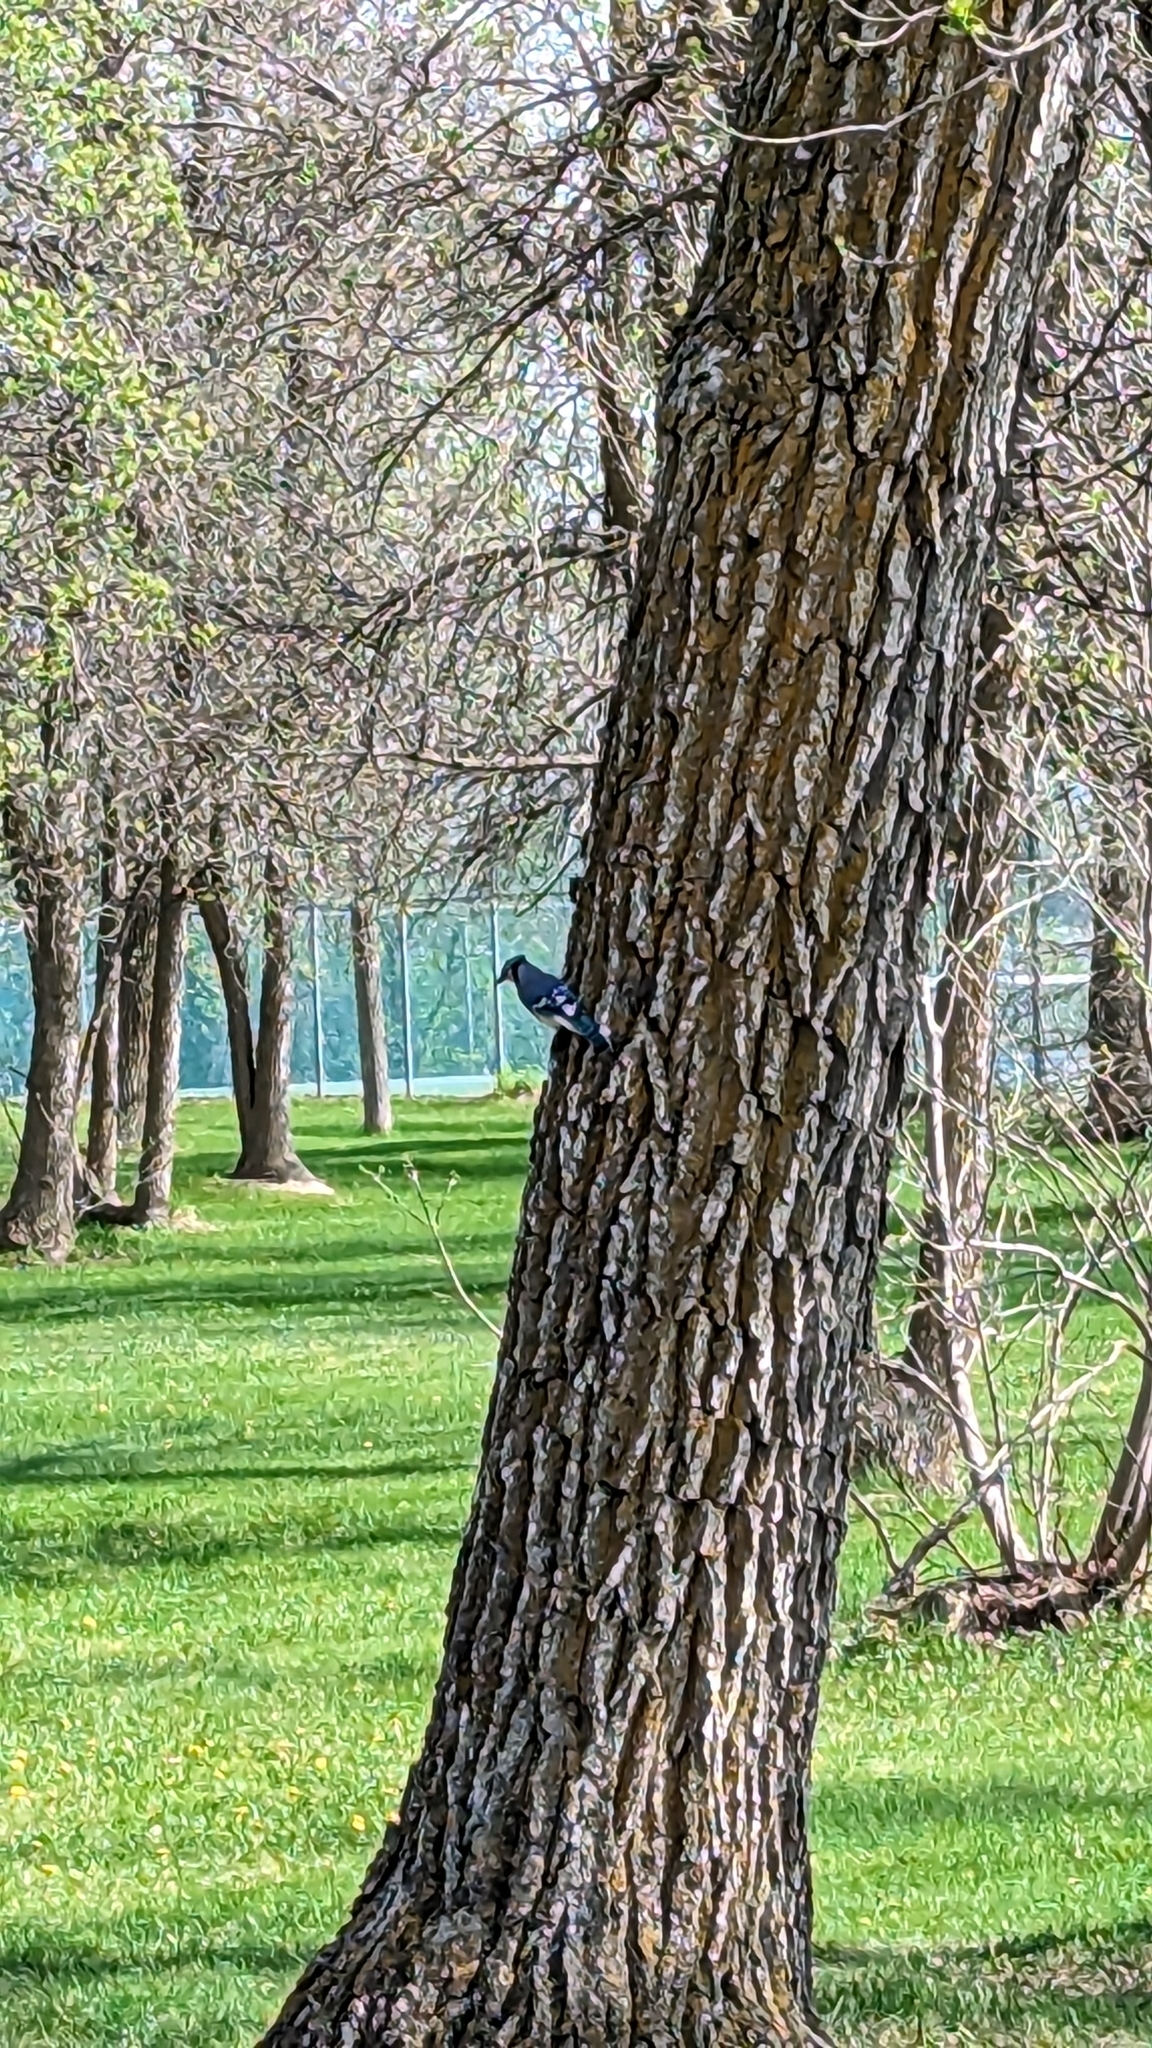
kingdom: Animalia
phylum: Chordata
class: Aves
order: Passeriformes
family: Corvidae
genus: Cyanocitta
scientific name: Cyanocitta cristata
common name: Blue jay
